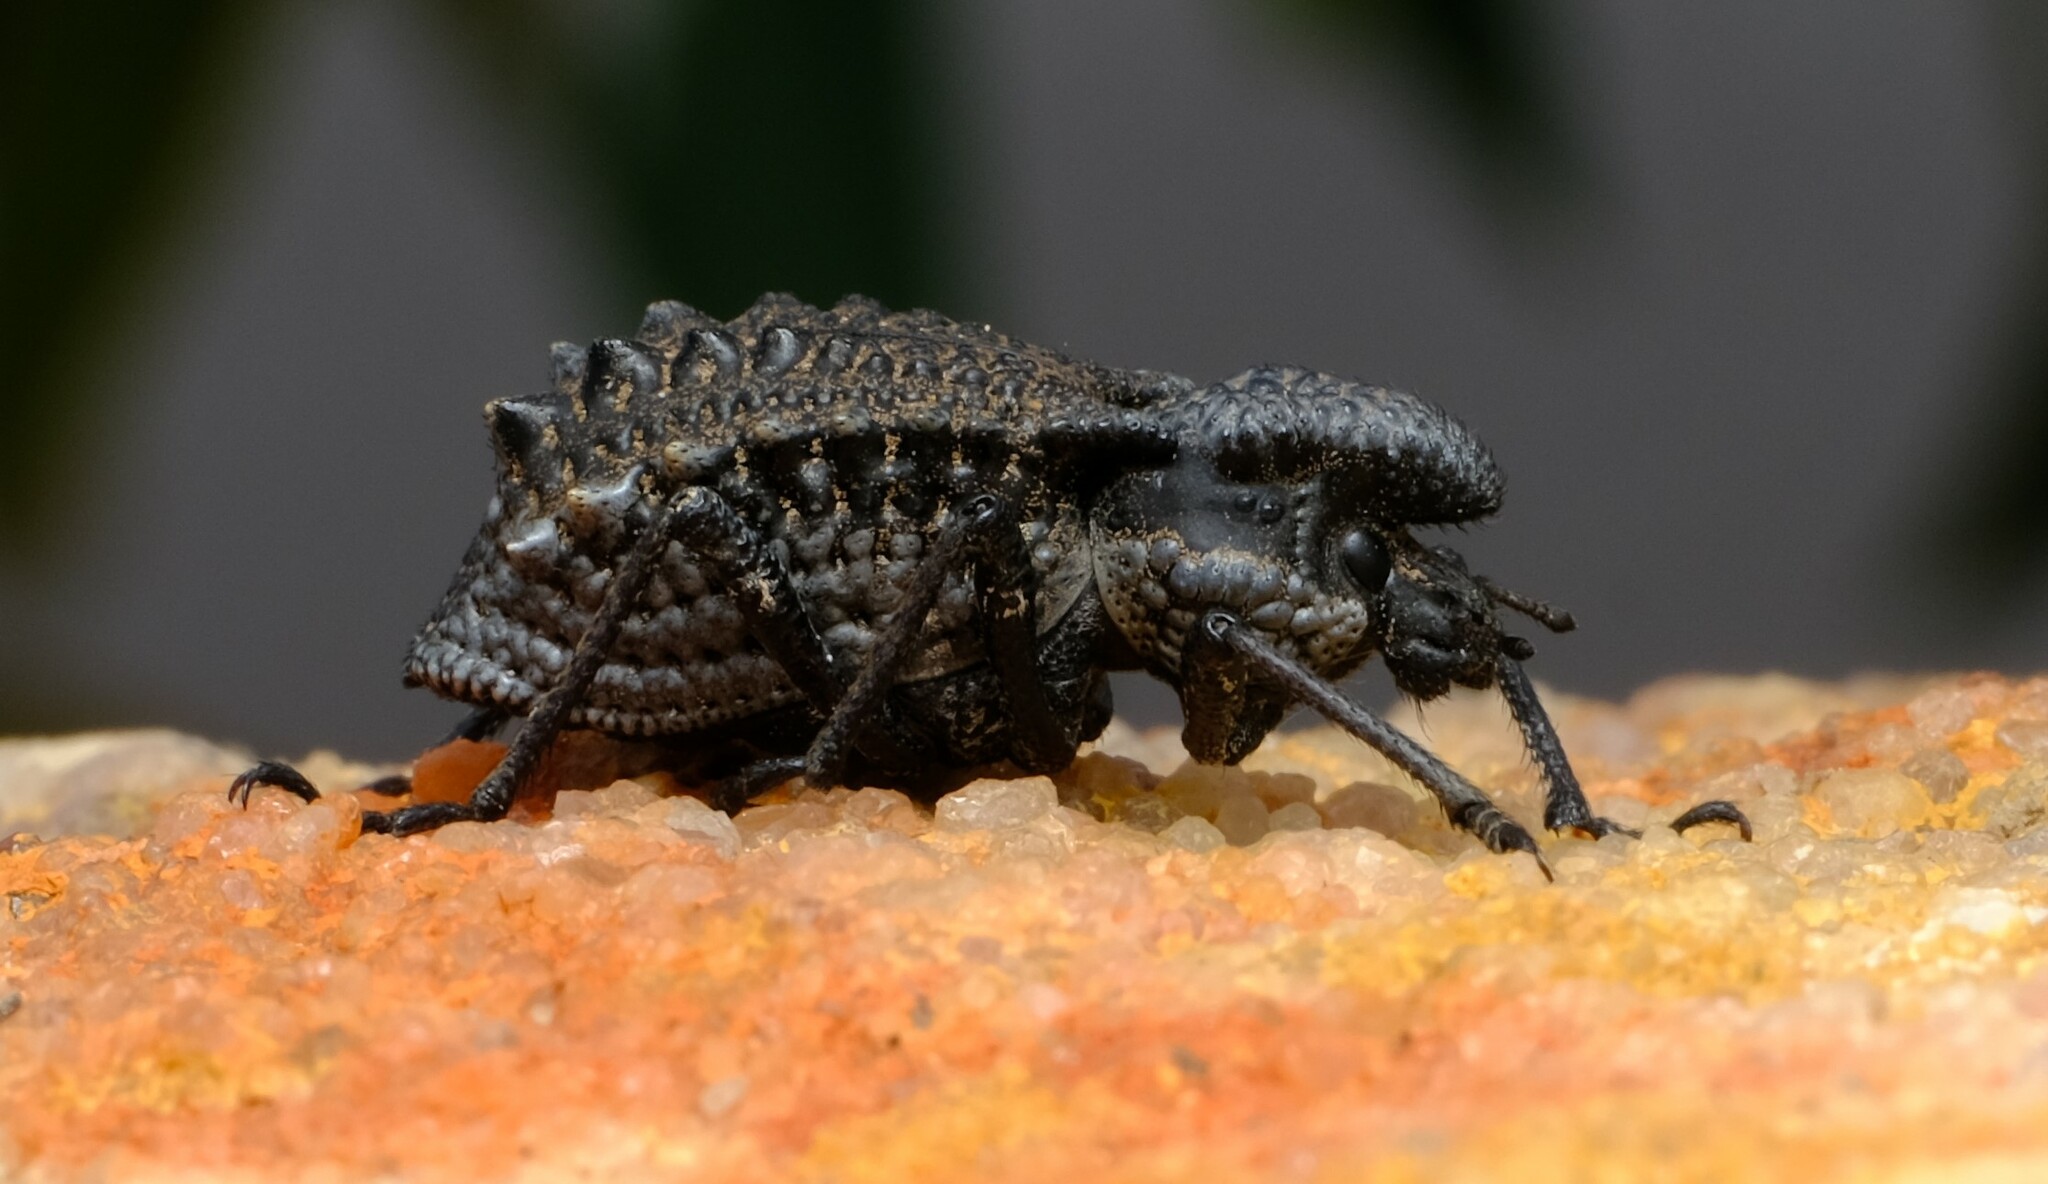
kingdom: Animalia
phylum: Arthropoda
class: Insecta
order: Coleoptera
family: Curculionidae
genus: Dialeptopus
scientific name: Dialeptopus plantaris
